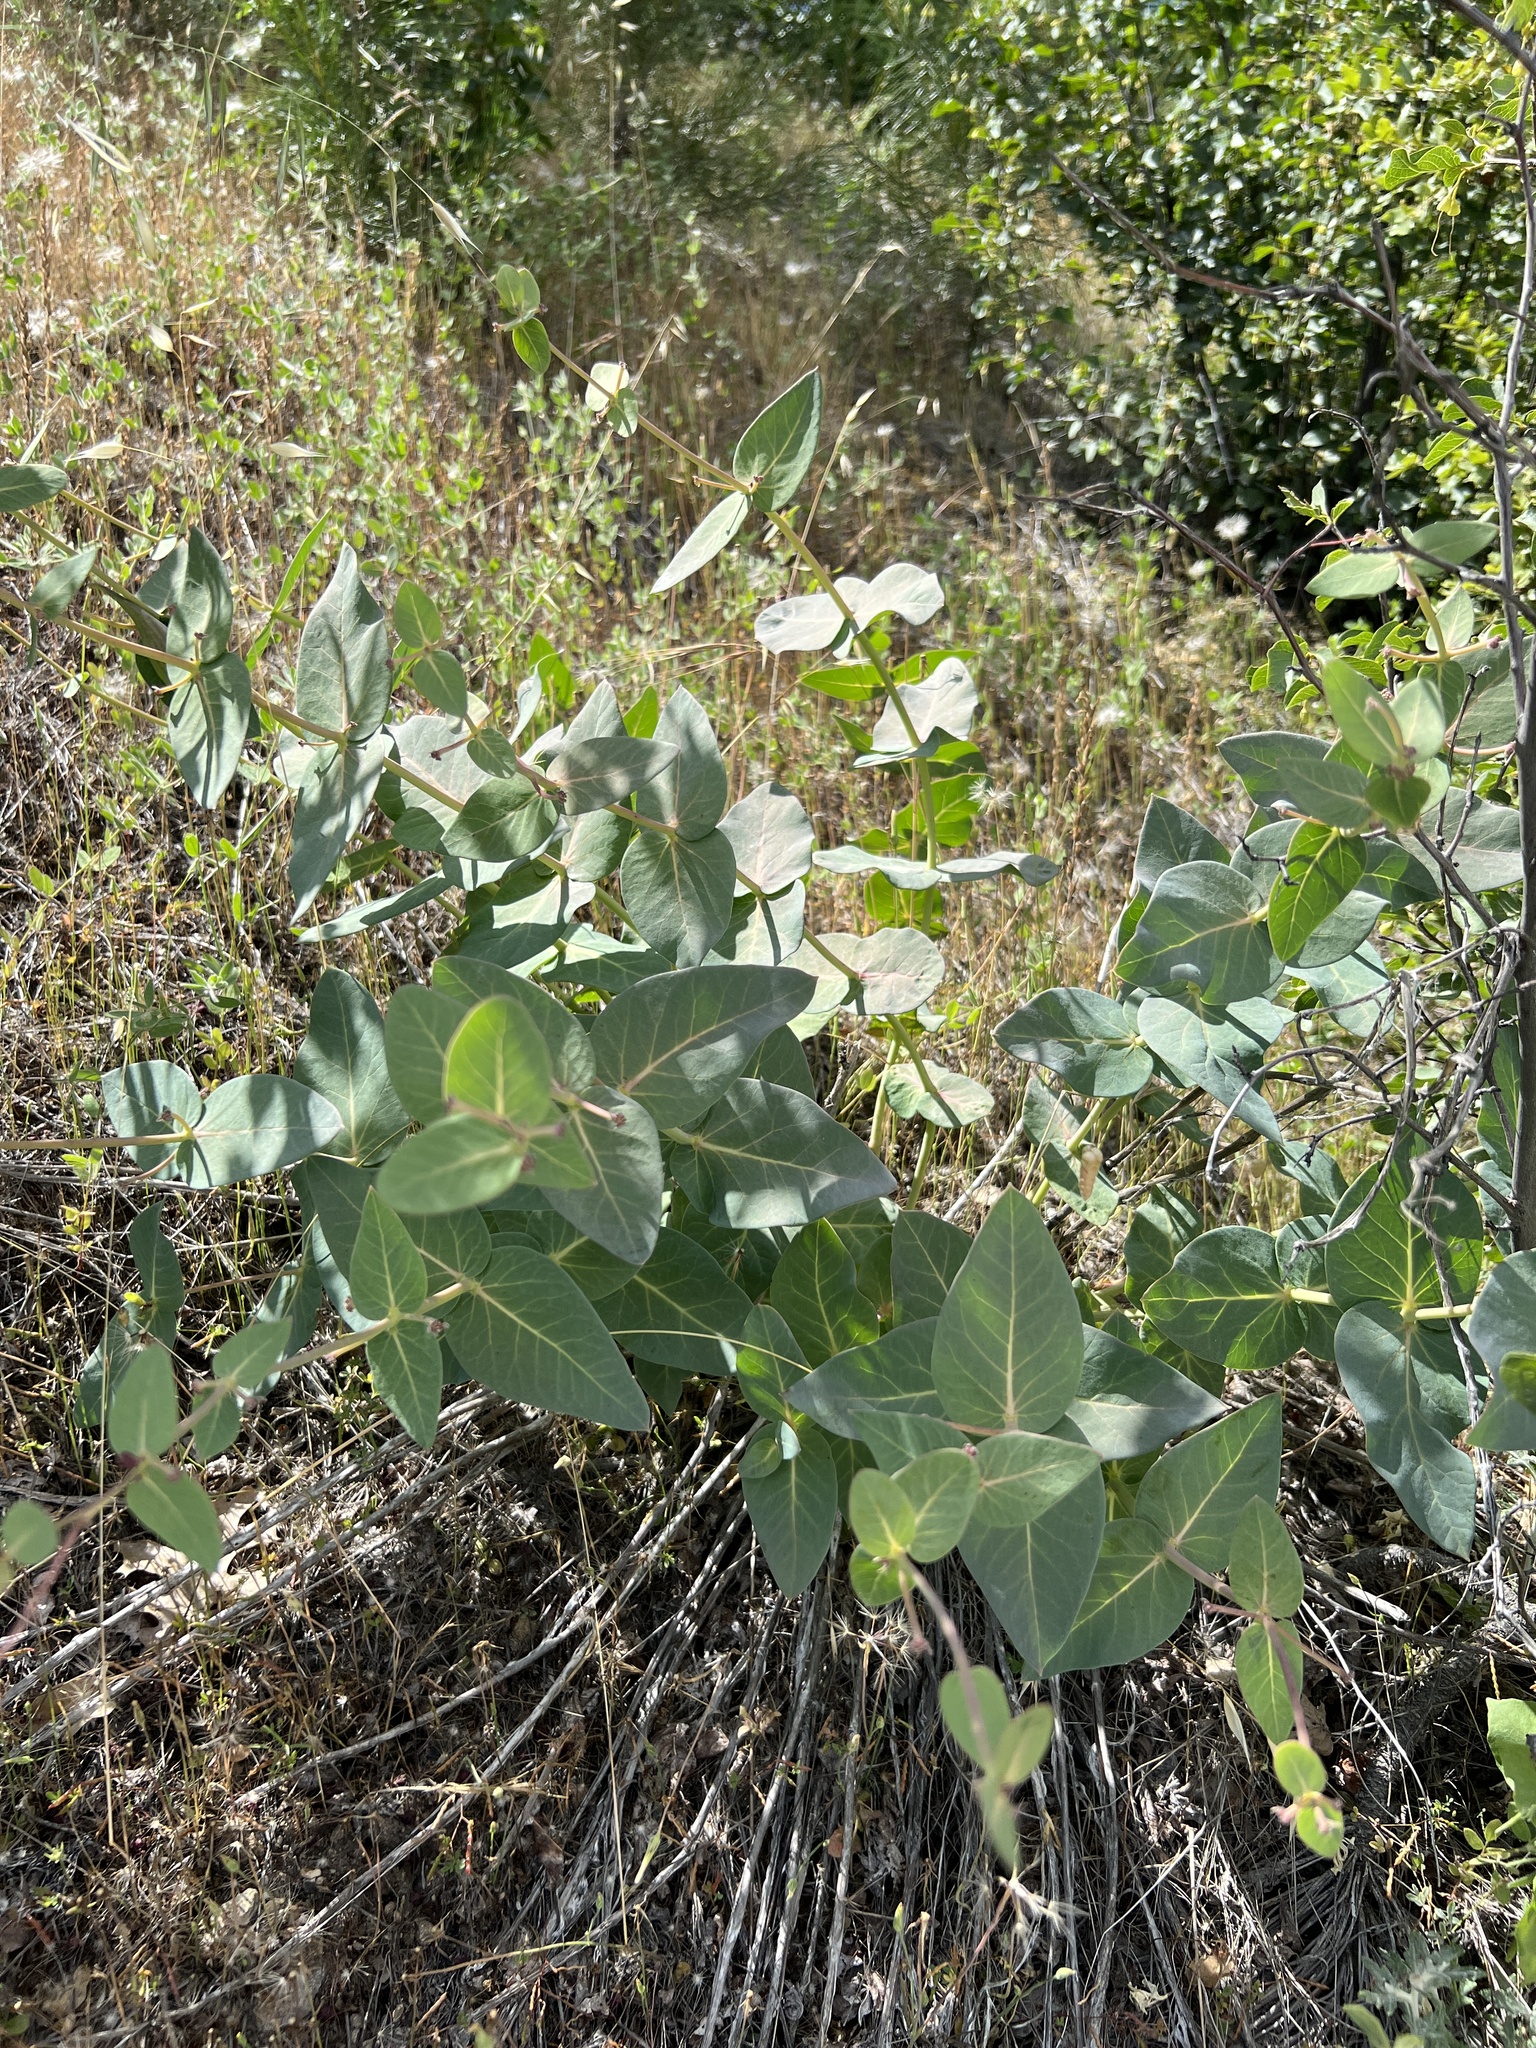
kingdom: Plantae
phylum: Tracheophyta
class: Magnoliopsida
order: Gentianales
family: Apocynaceae
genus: Asclepias
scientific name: Asclepias cordifolia
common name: Purple milkweed
